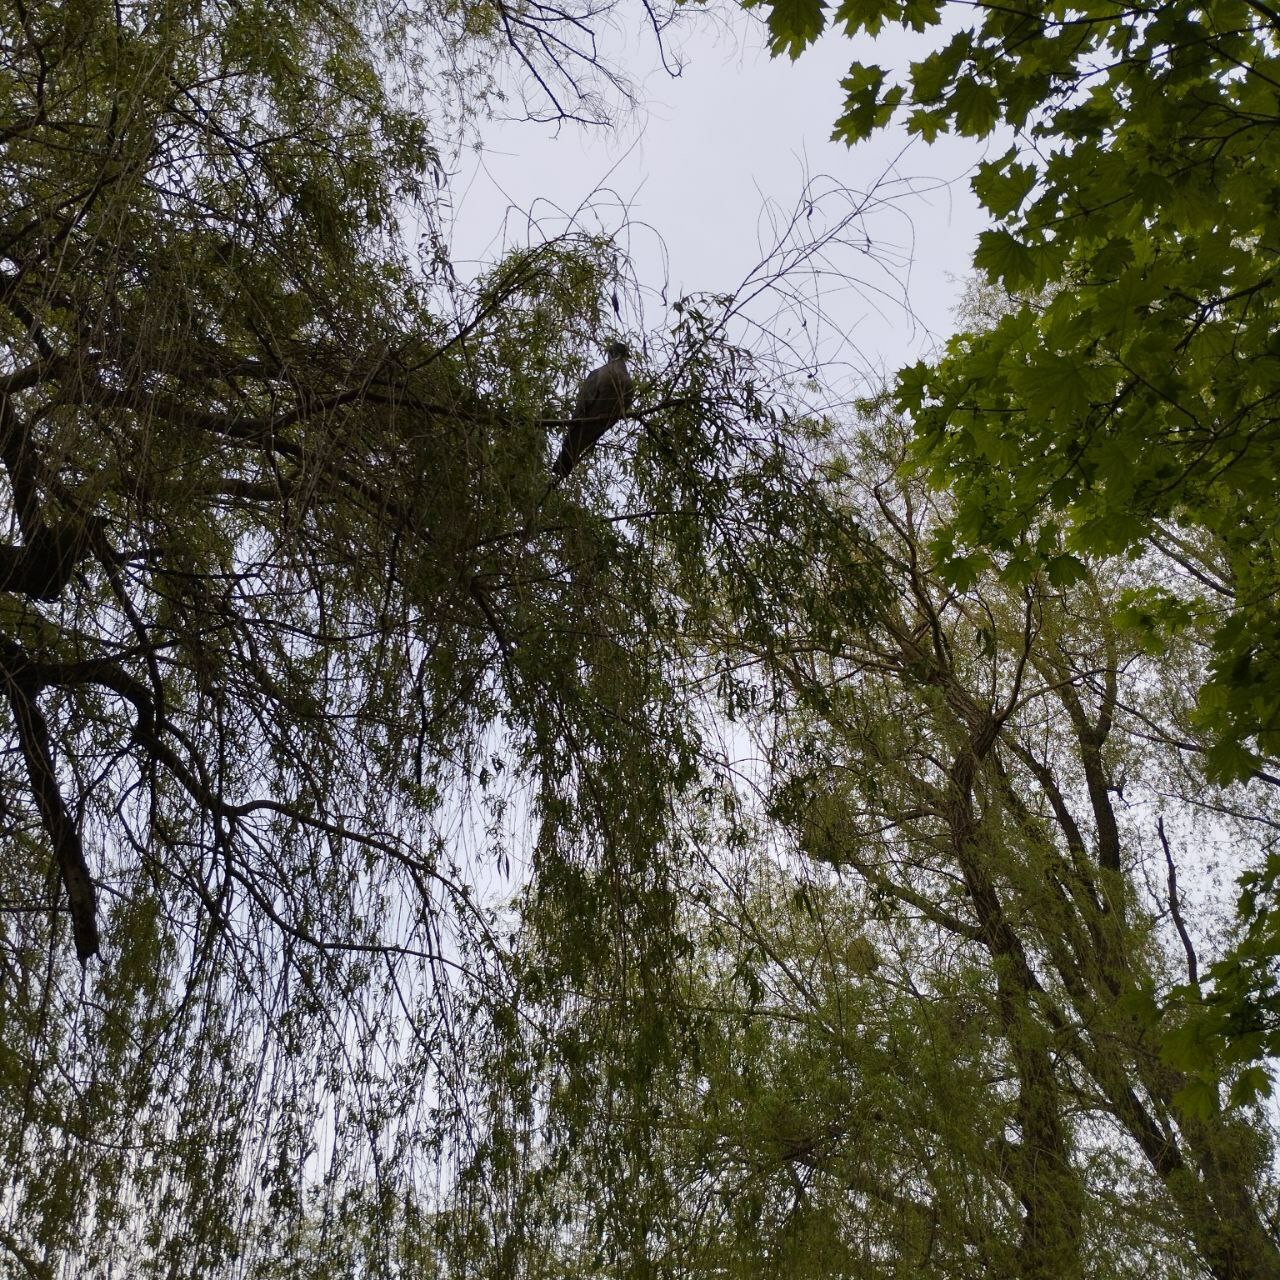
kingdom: Animalia
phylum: Chordata
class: Aves
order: Columbiformes
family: Columbidae
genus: Columba
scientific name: Columba palumbus
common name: Common wood pigeon
